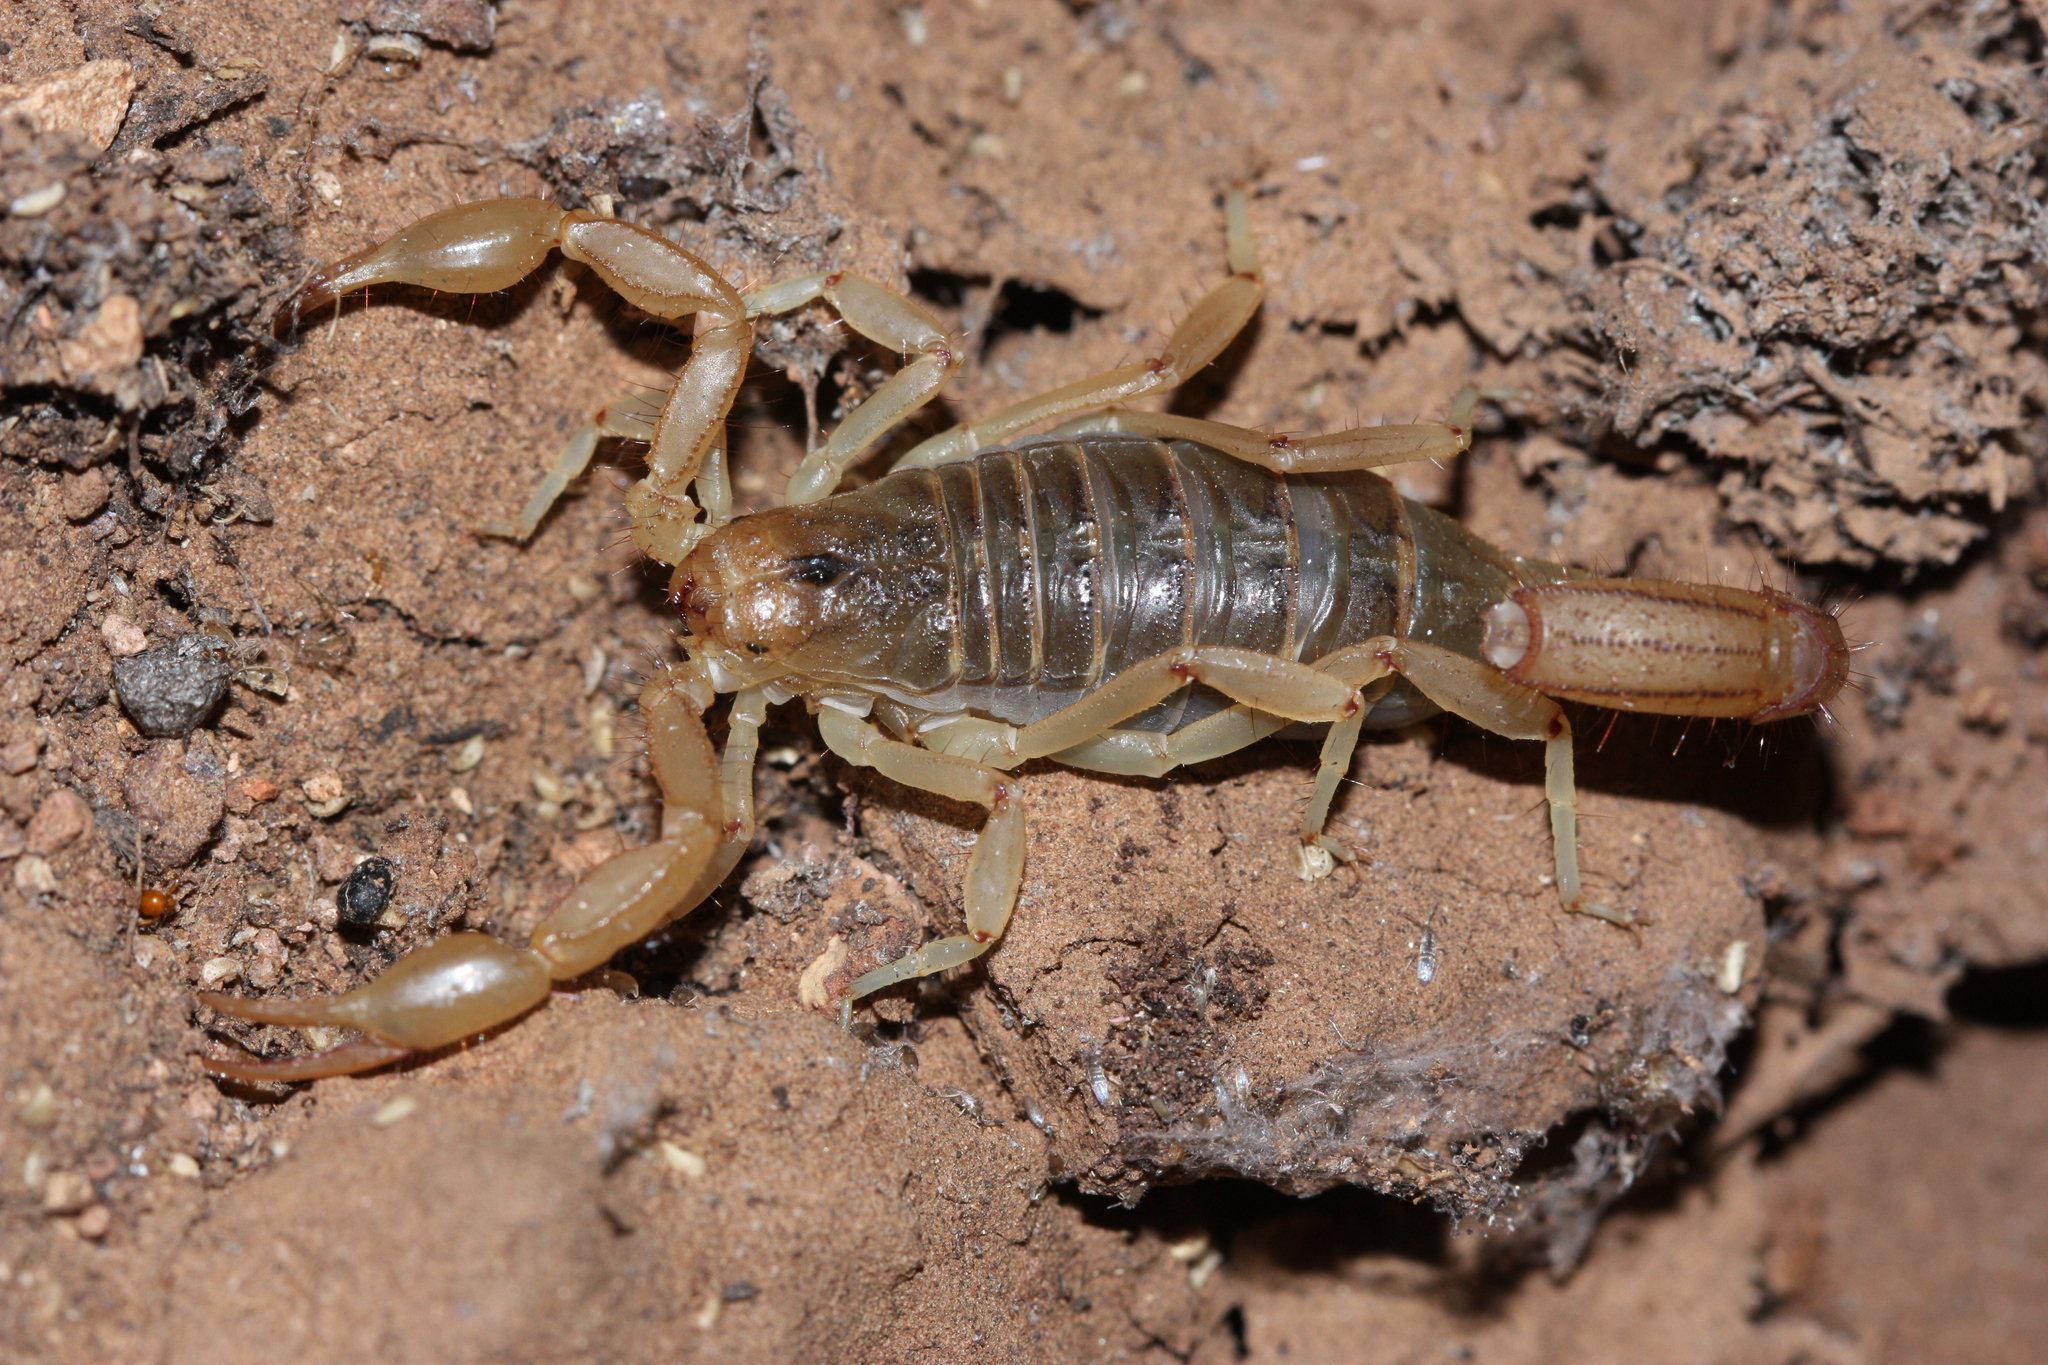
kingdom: Animalia
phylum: Arthropoda
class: Arachnida
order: Scorpiones
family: Vaejovidae
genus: Paravaejovis
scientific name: Paravaejovis spinigerus
